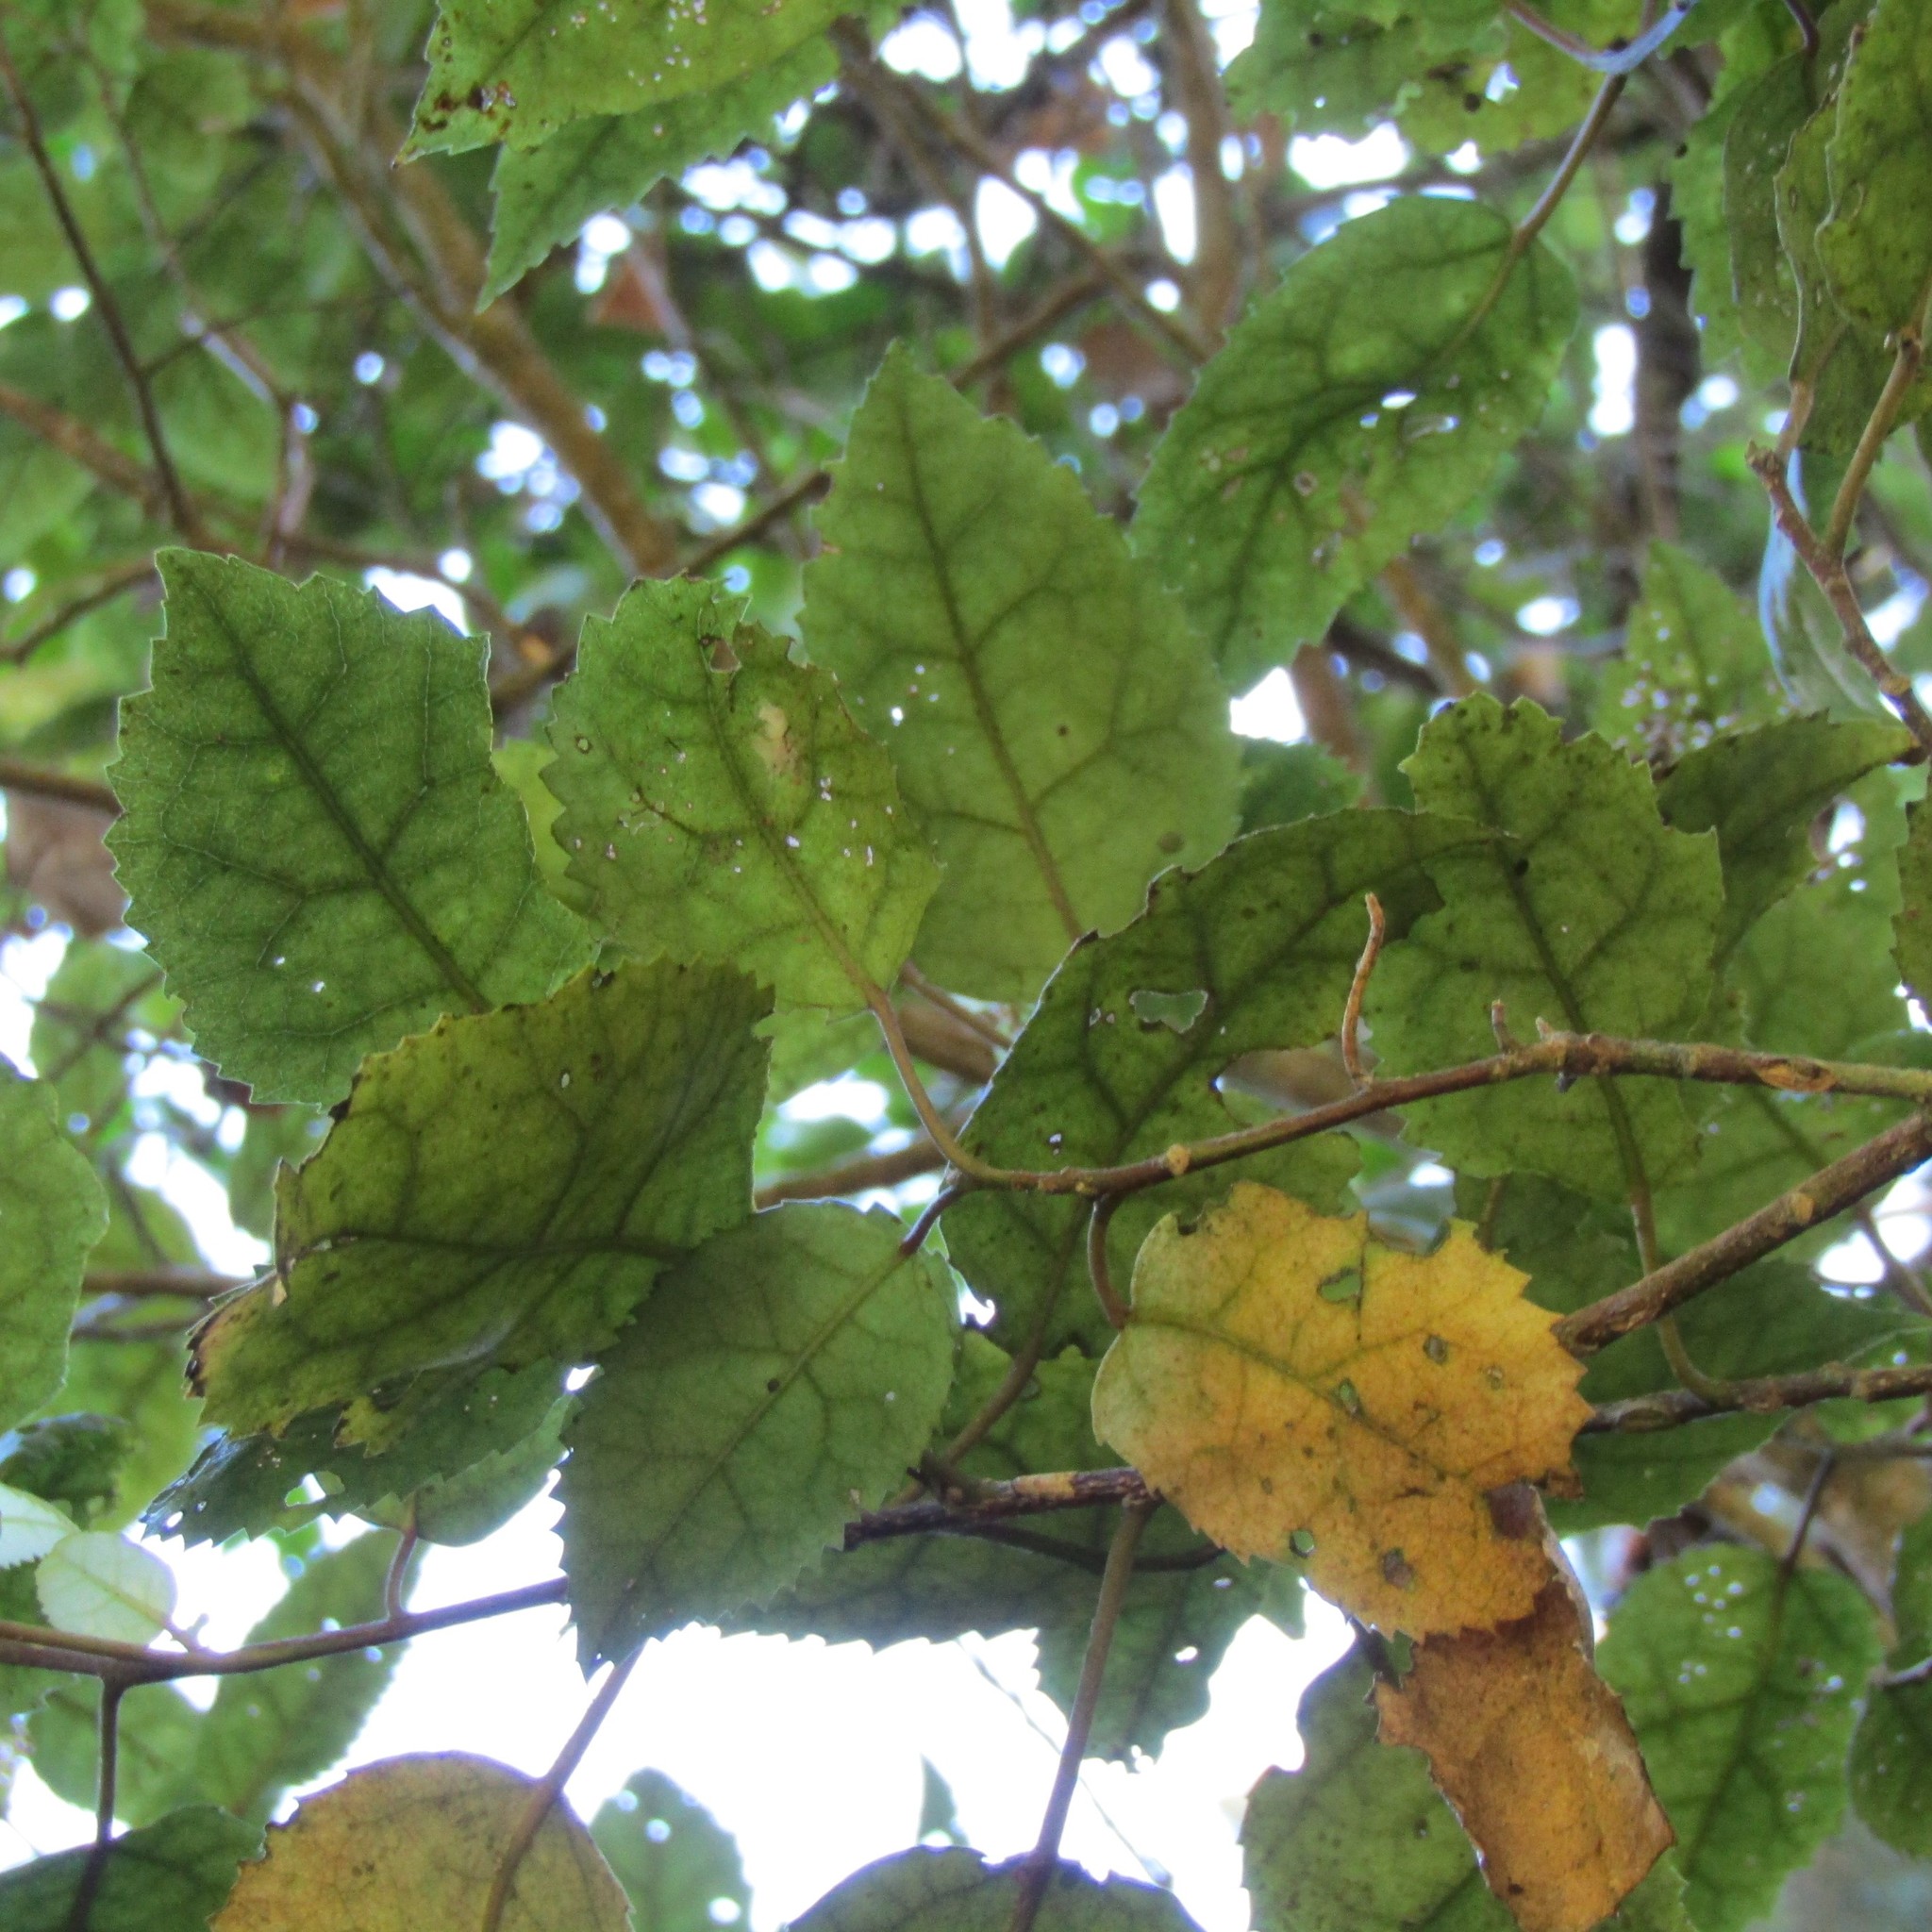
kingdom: Plantae
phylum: Tracheophyta
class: Magnoliopsida
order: Malvales
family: Malvaceae
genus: Hoheria
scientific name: Hoheria populnea
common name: Lacebark
